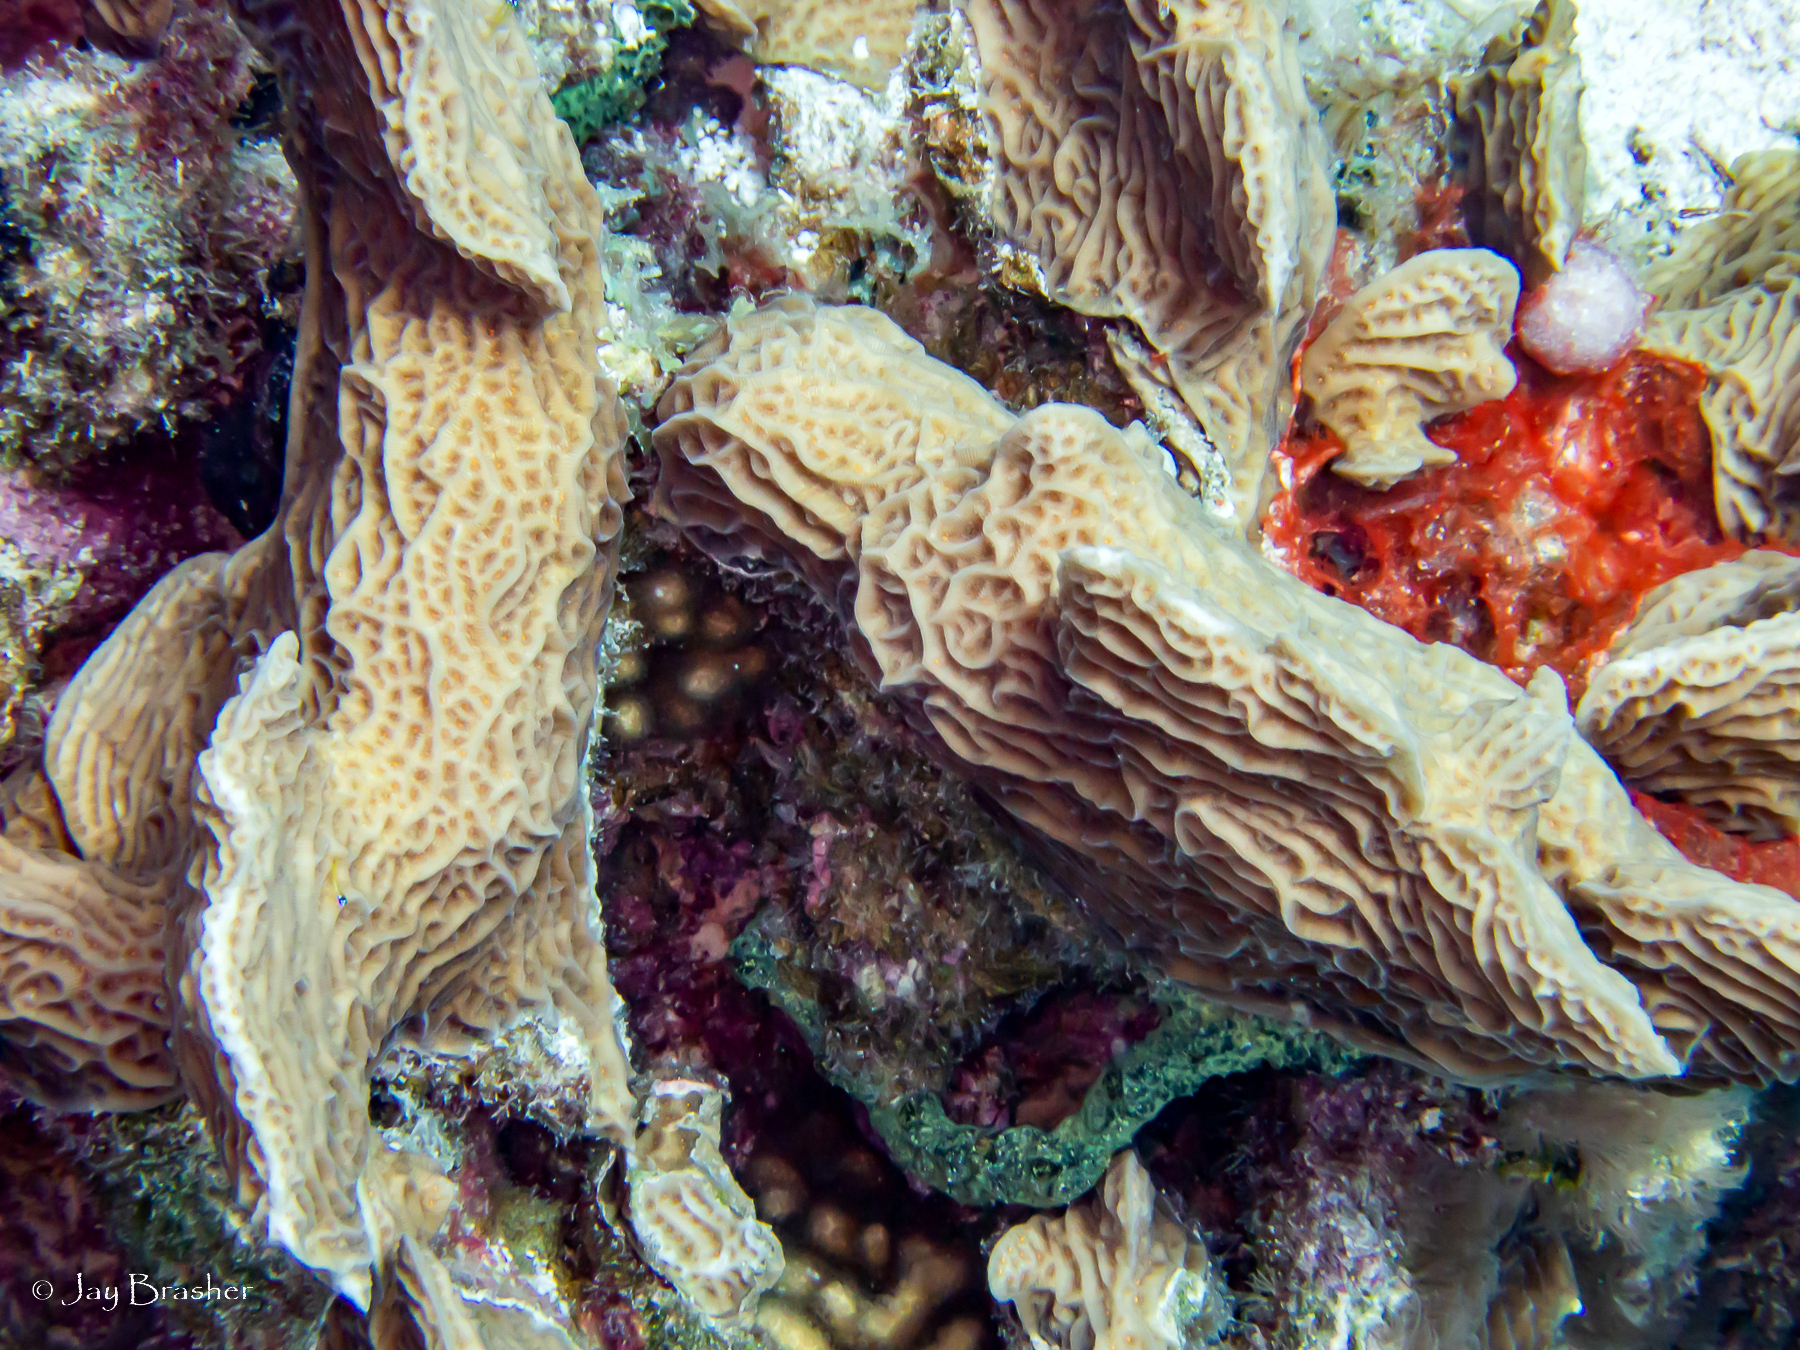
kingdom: Animalia
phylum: Cnidaria
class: Anthozoa
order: Scleractinia
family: Agariciidae
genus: Agaricia
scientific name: Agaricia agaricites
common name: Lettuce coral
